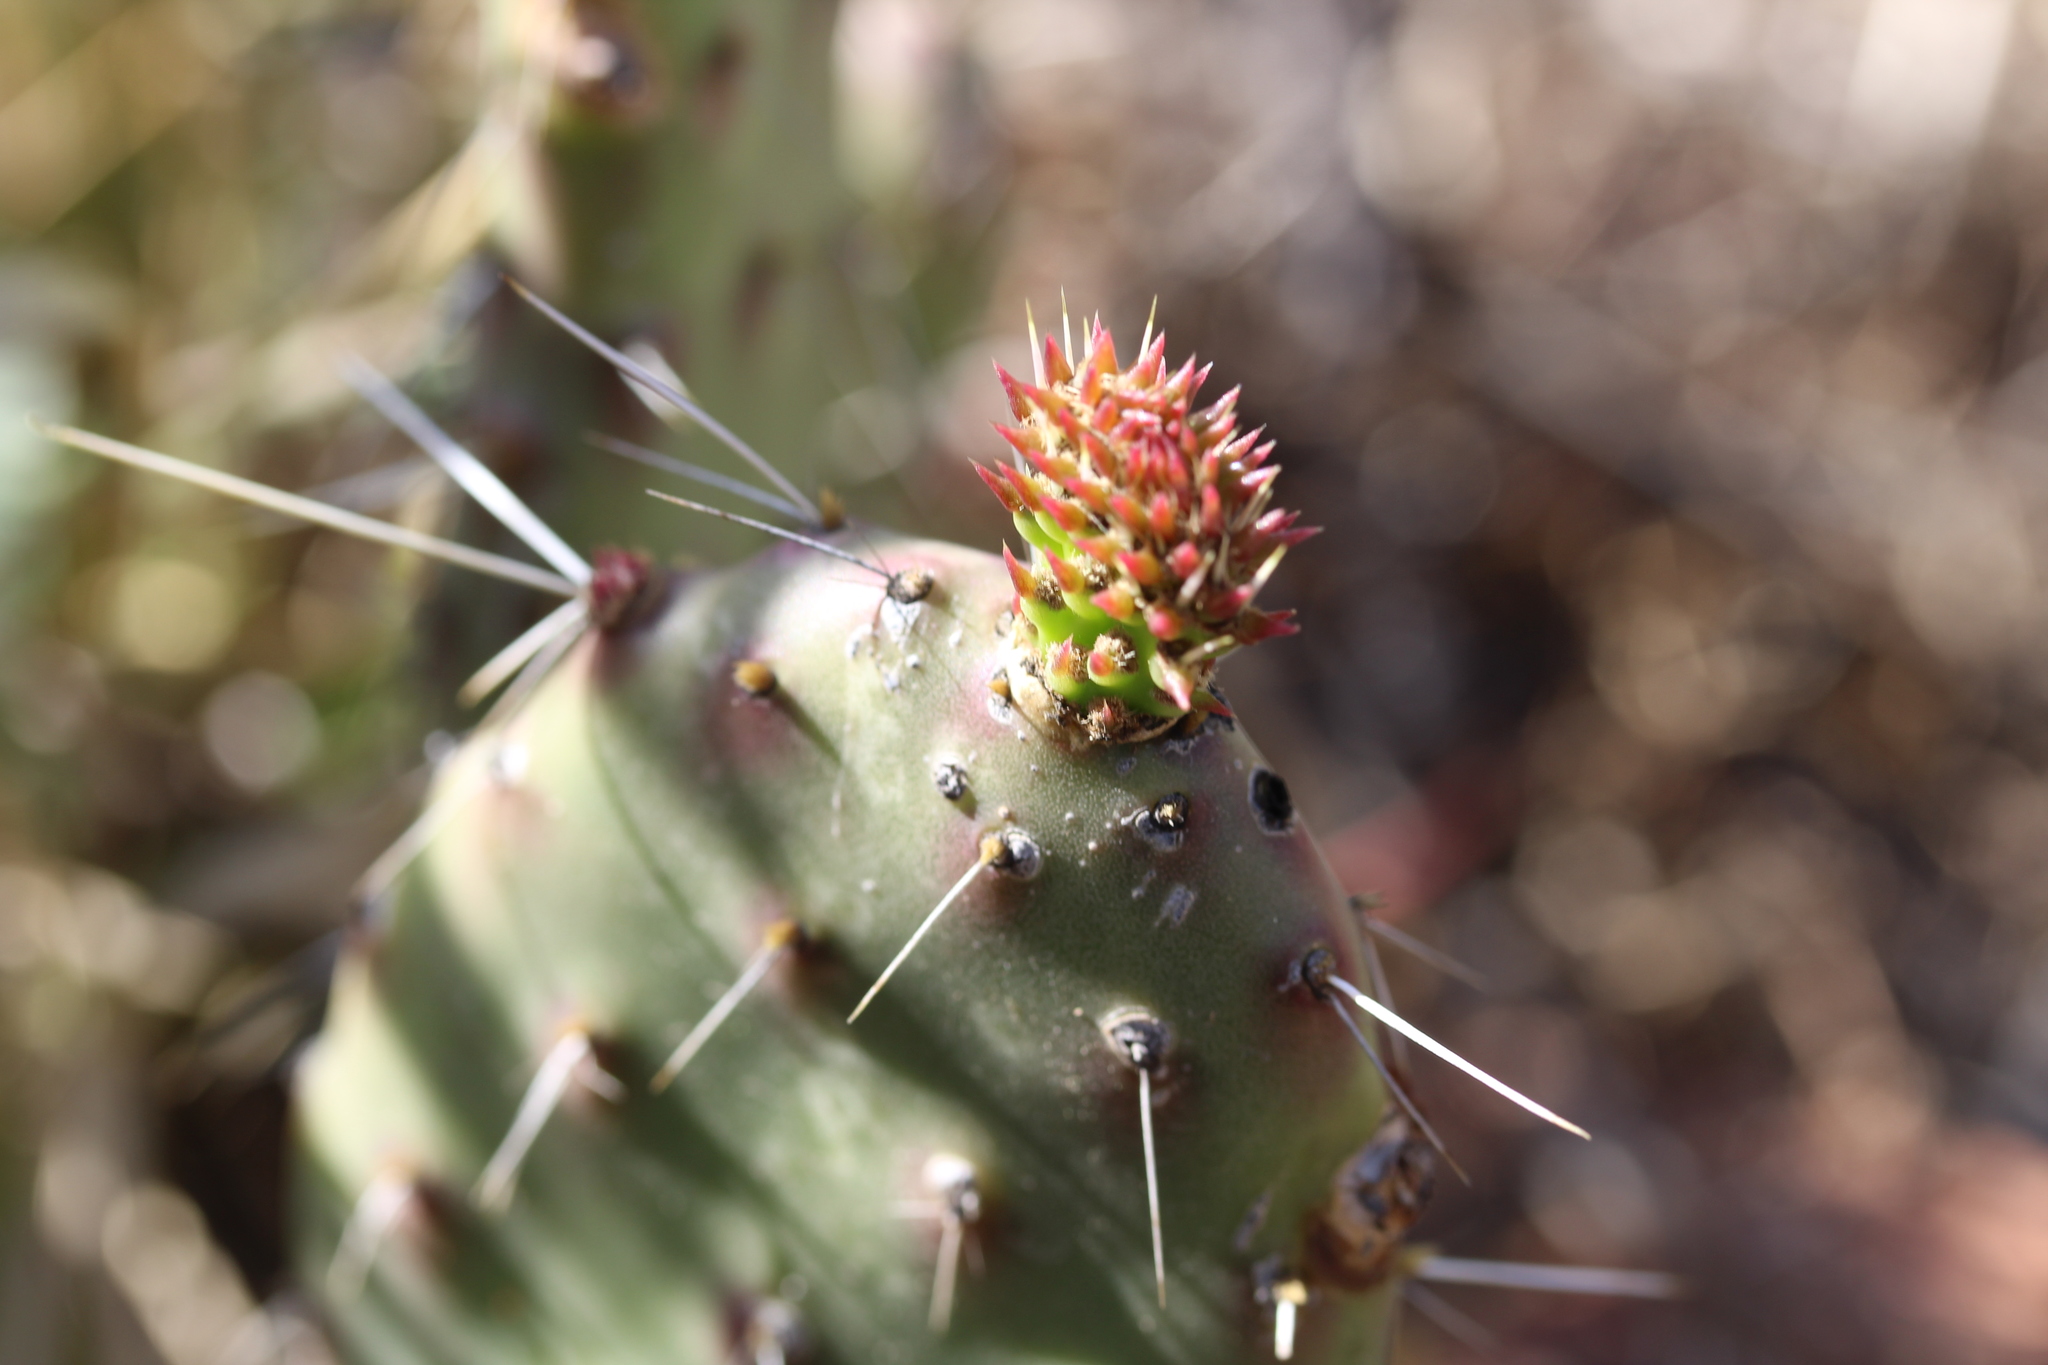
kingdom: Plantae
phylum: Tracheophyta
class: Magnoliopsida
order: Caryophyllales
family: Cactaceae
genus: Opuntia
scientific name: Opuntia
